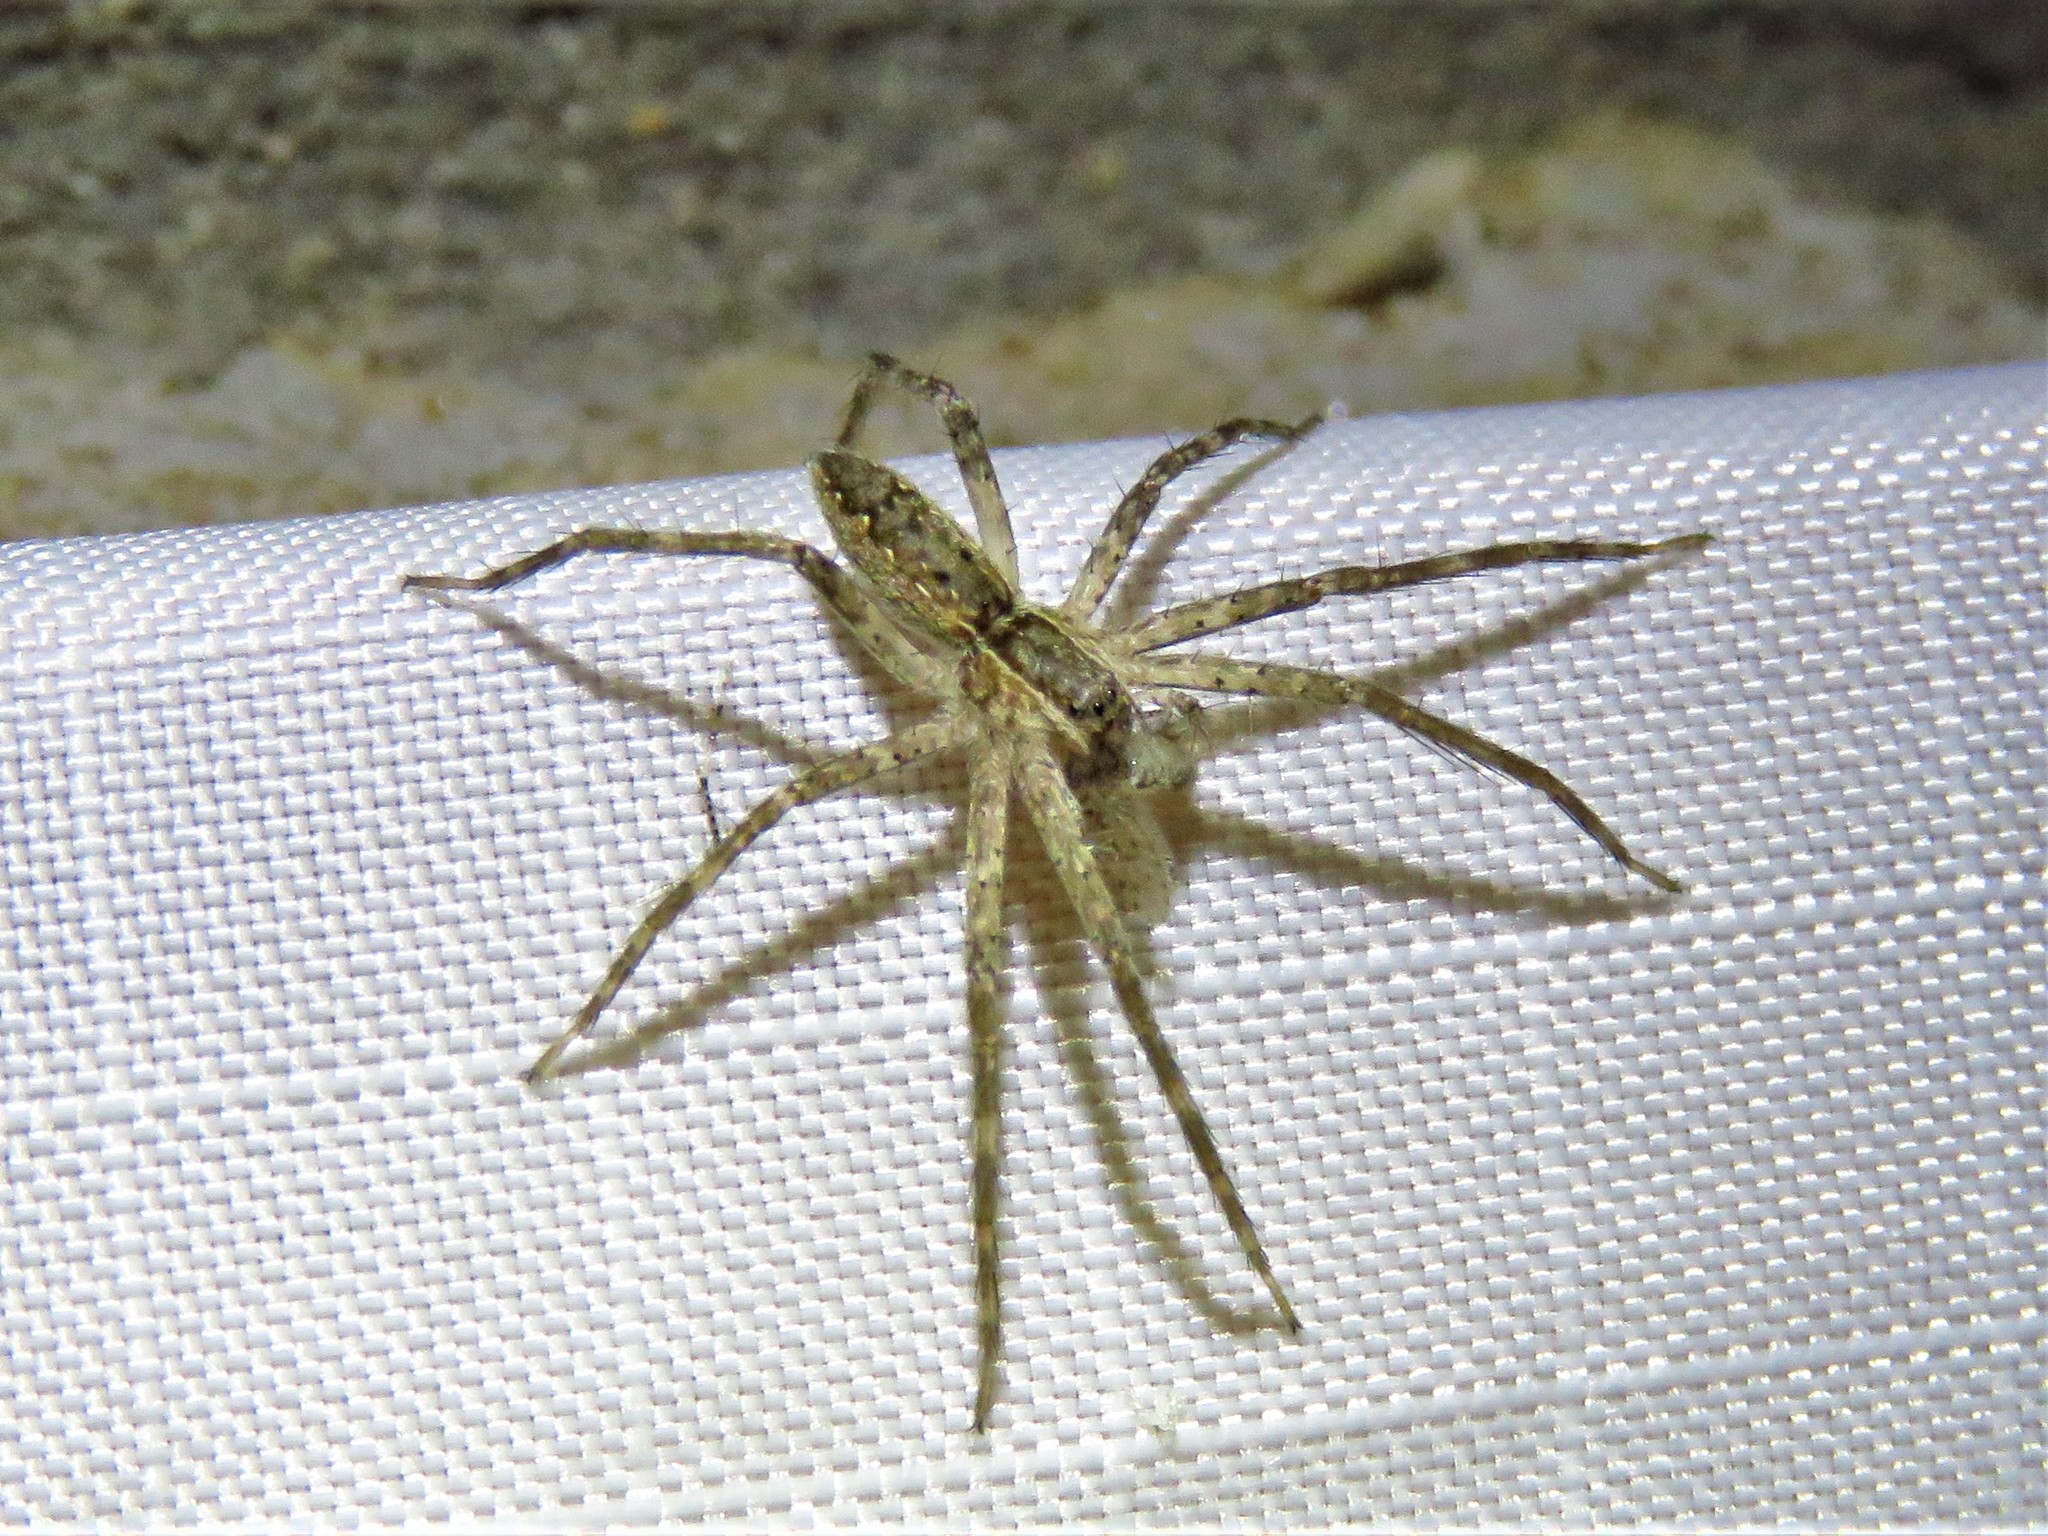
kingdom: Animalia
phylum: Arthropoda
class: Arachnida
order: Araneae
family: Pisauridae
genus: Pisaurina
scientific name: Pisaurina mira
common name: American nursery web spider
